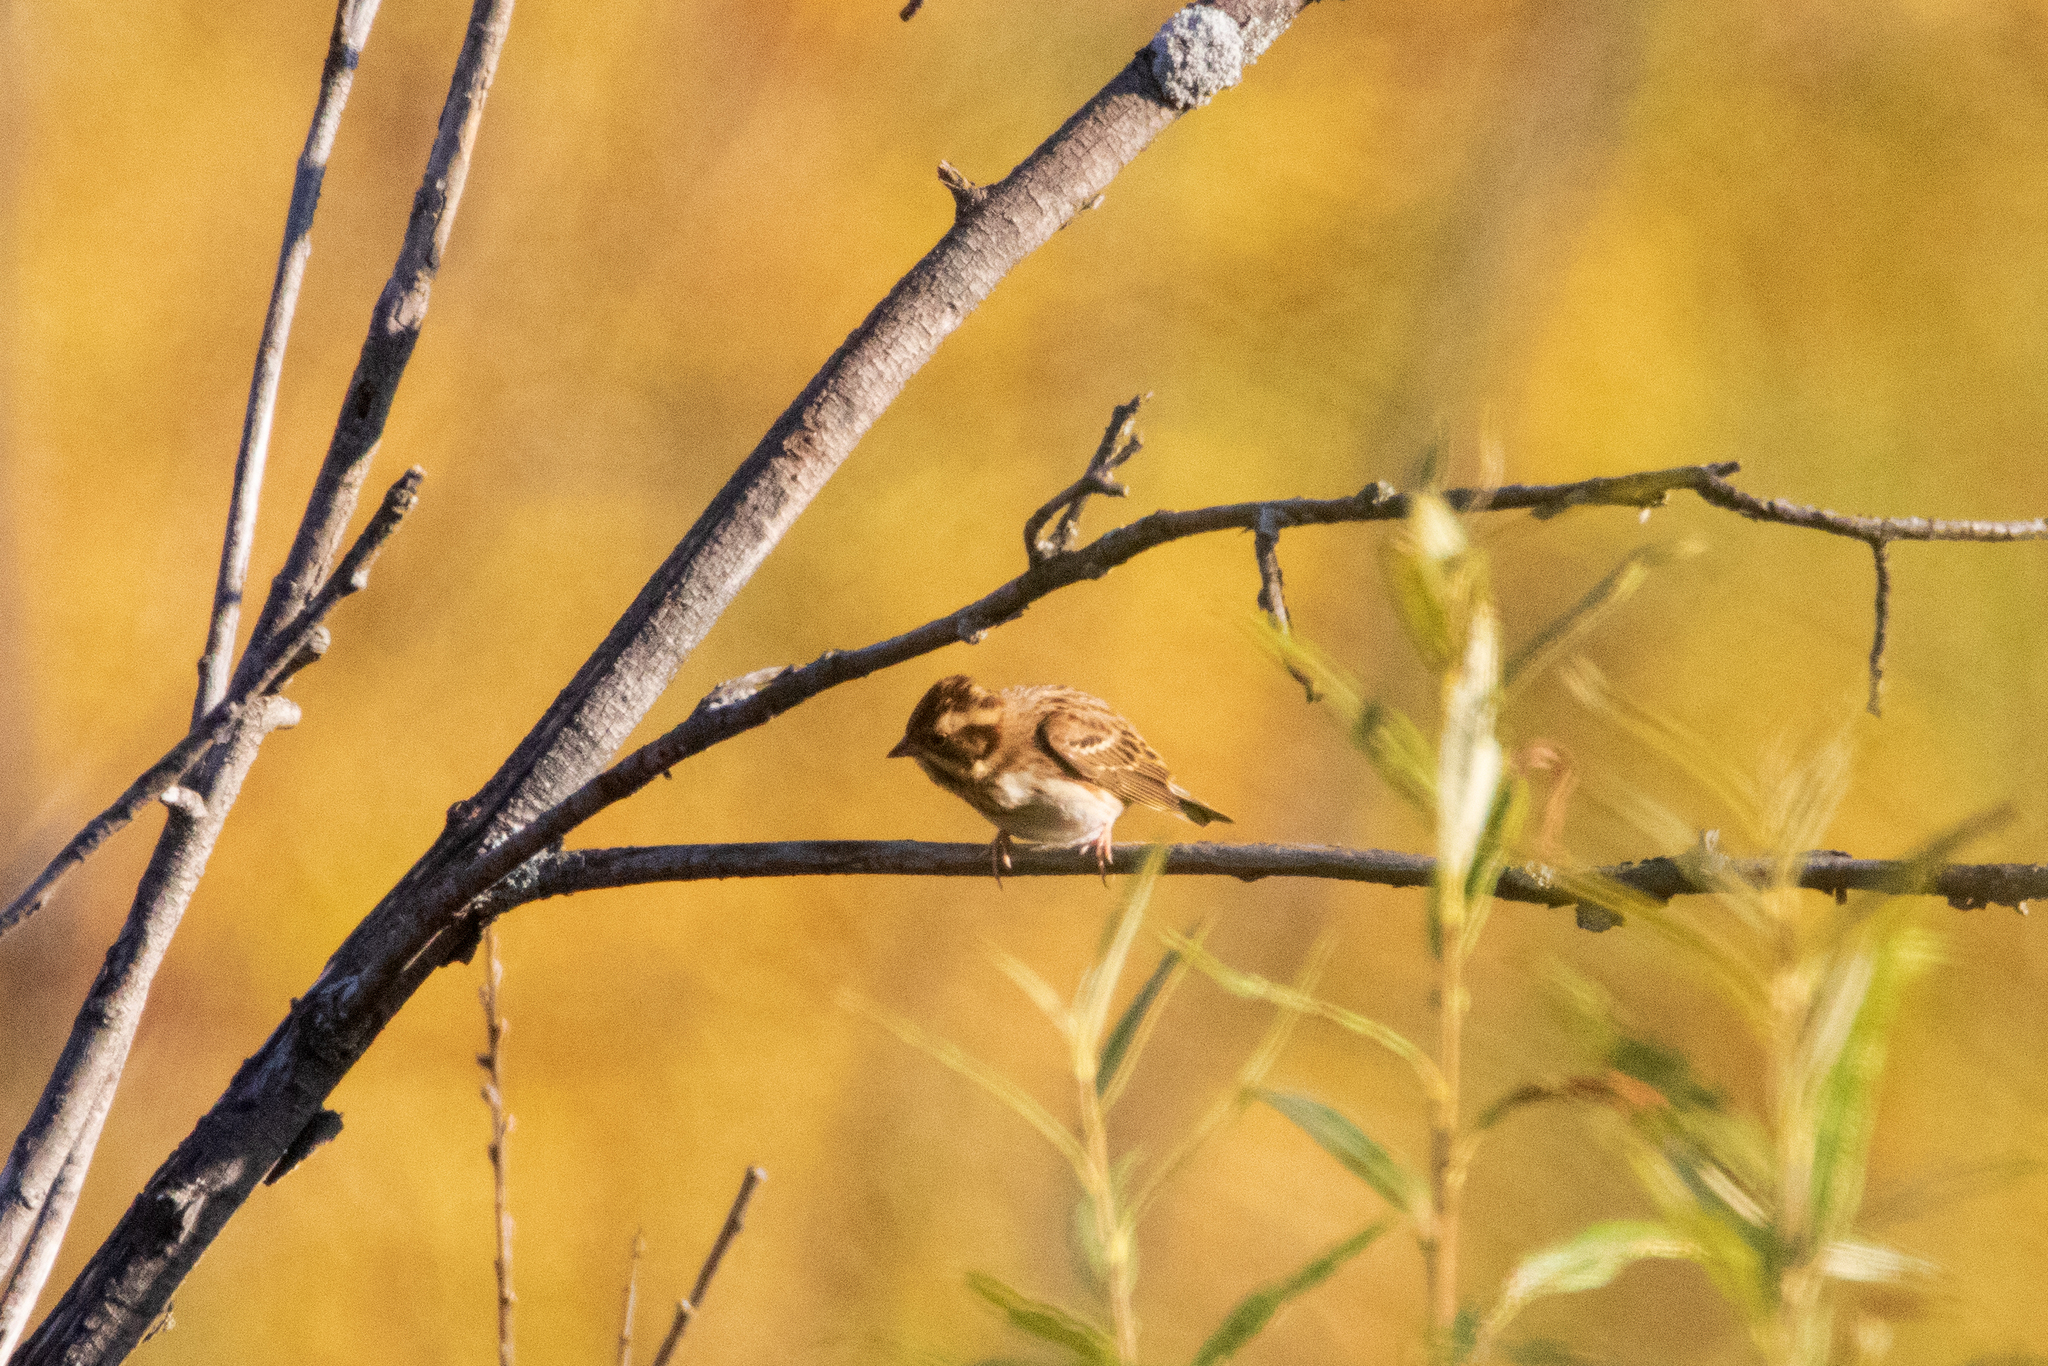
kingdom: Animalia
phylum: Chordata
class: Aves
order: Passeriformes
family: Emberizidae
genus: Emberiza
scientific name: Emberiza rustica
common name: Rustic bunting
